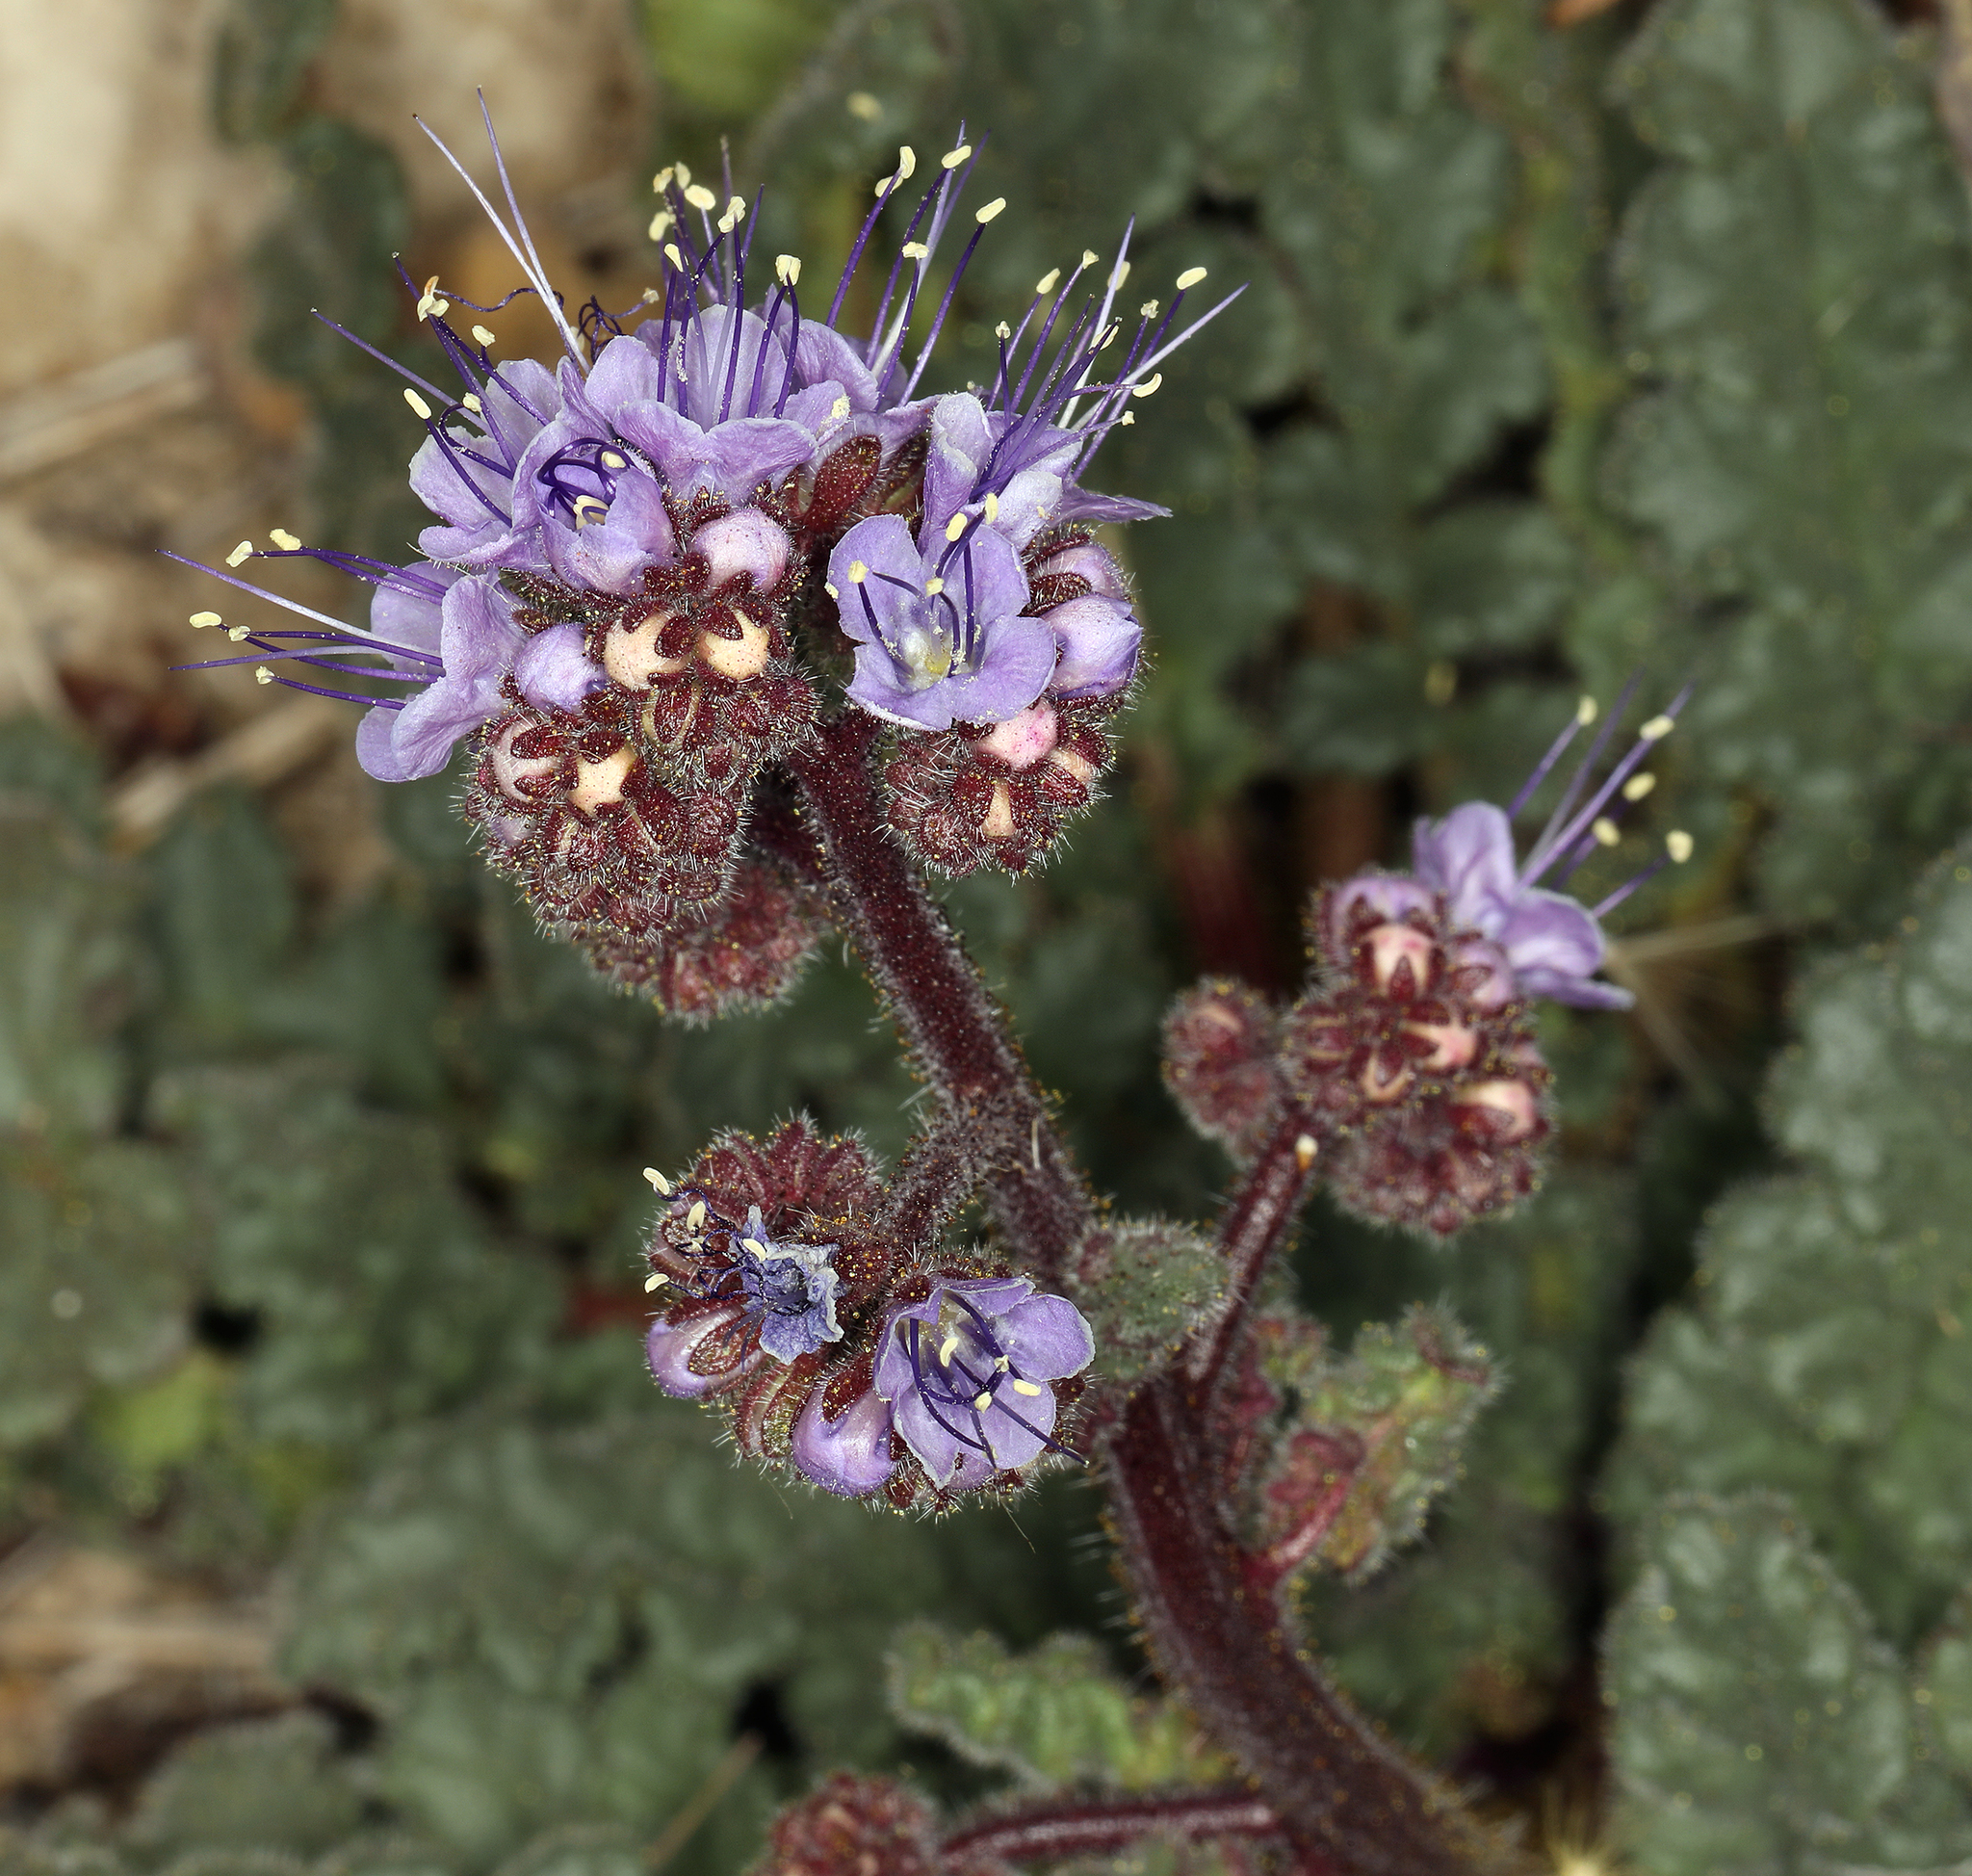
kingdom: Plantae
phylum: Tracheophyta
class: Magnoliopsida
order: Boraginales
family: Hydrophyllaceae
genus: Phacelia
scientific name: Phacelia crenulata
